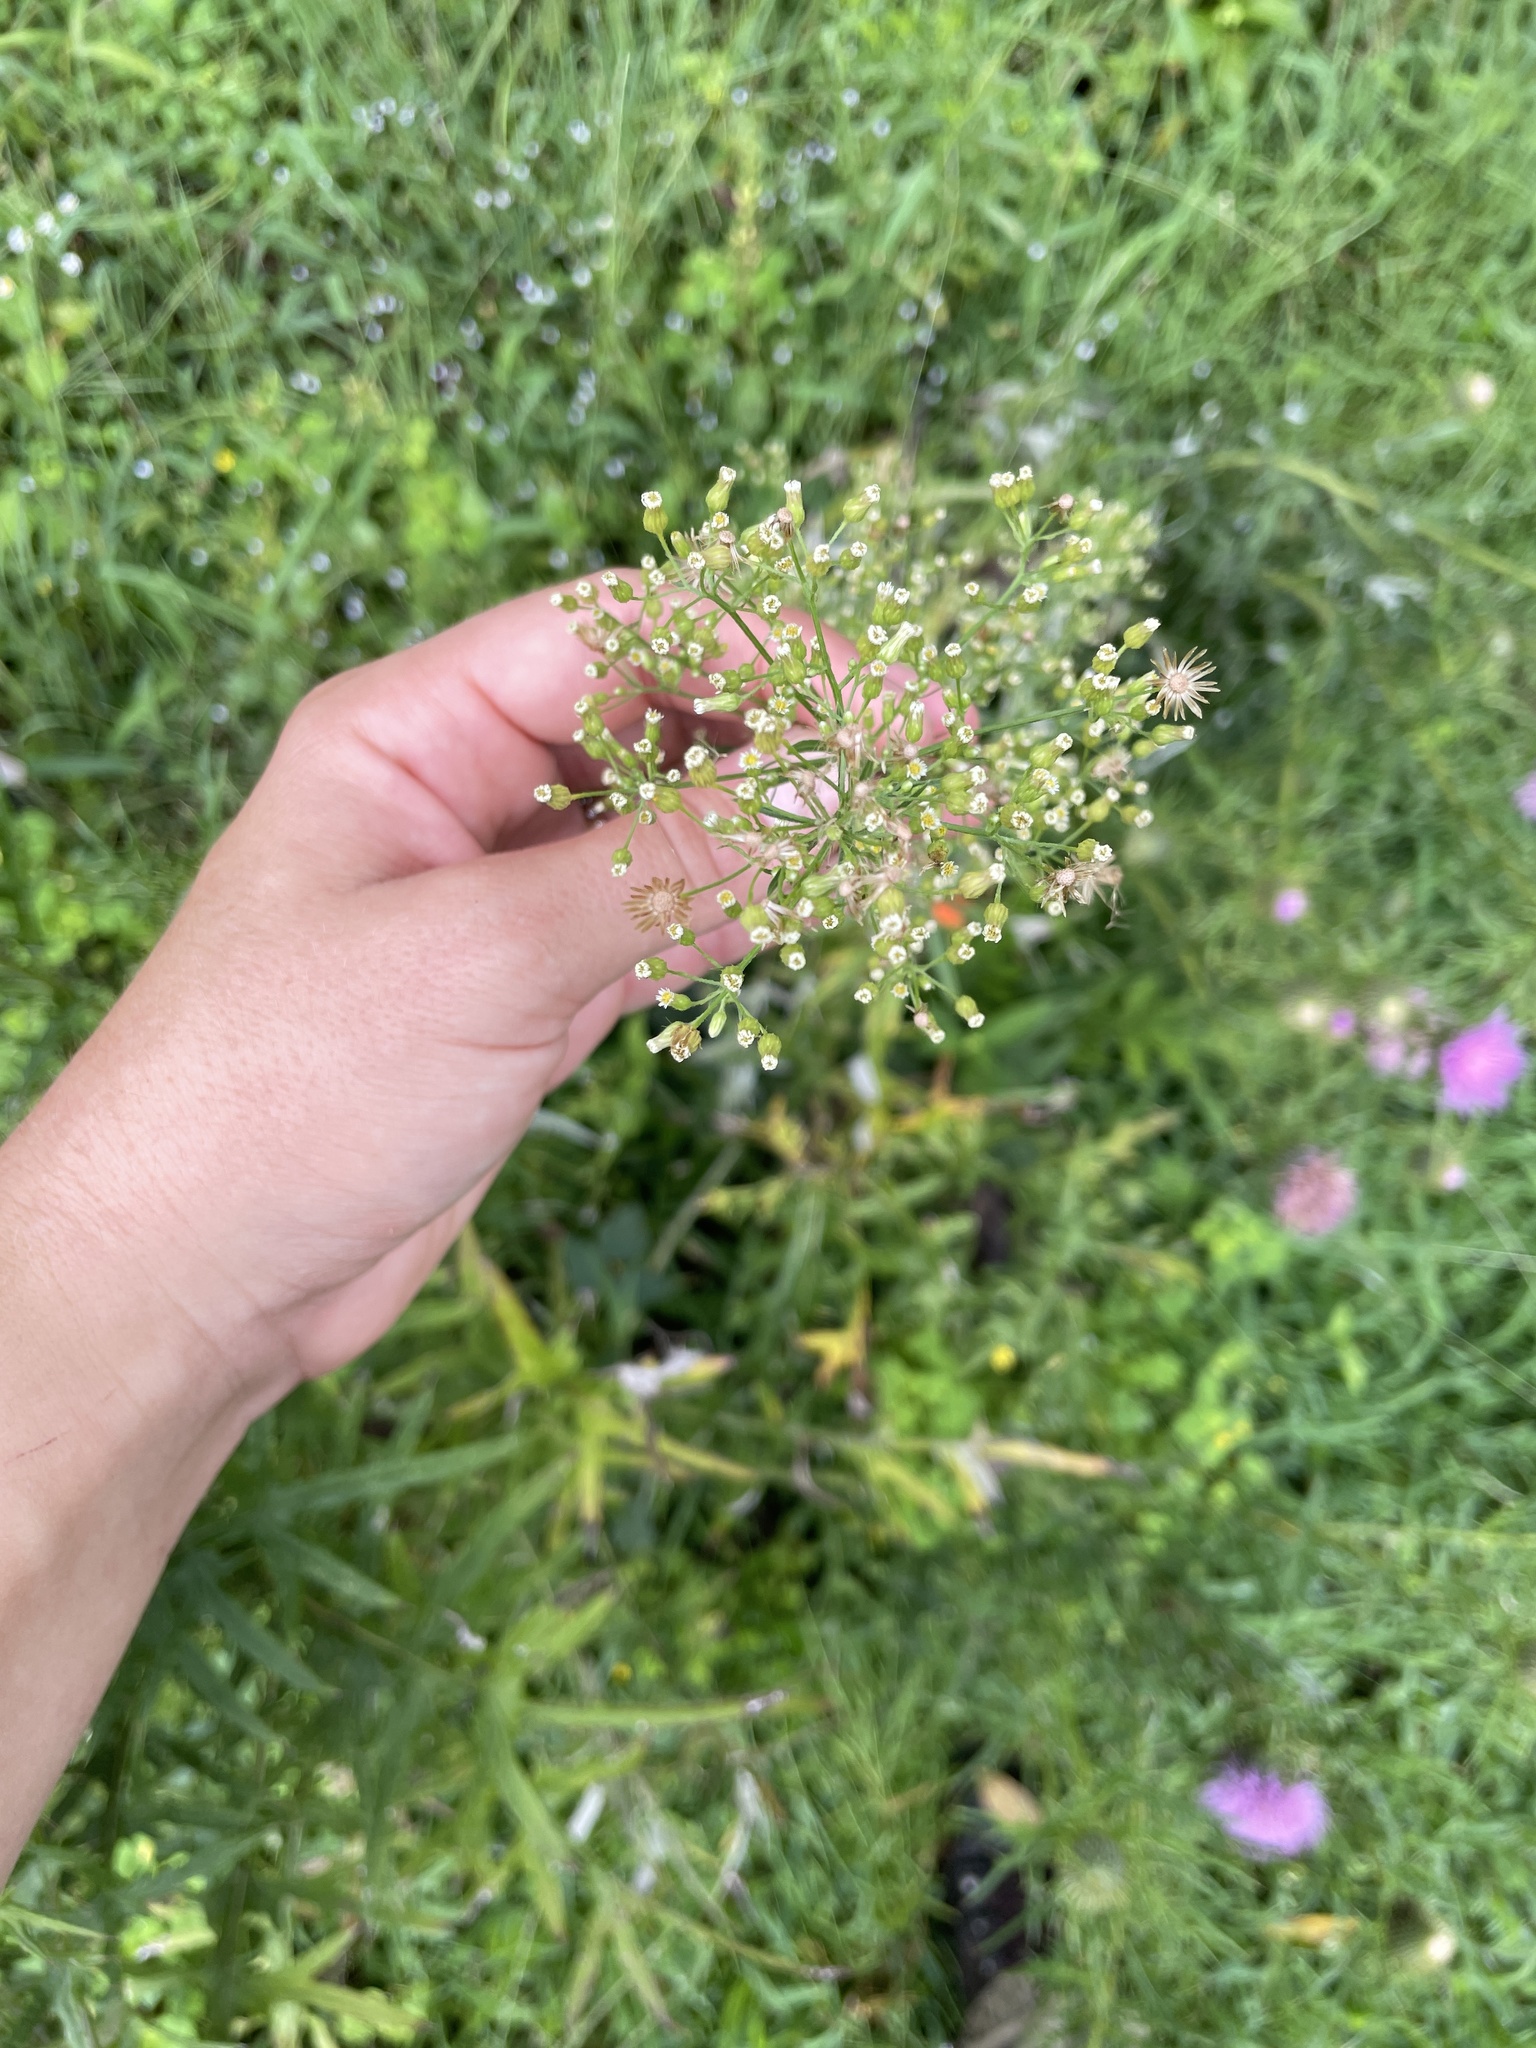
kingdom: Plantae
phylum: Tracheophyta
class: Magnoliopsida
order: Asterales
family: Asteraceae
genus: Erigeron
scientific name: Erigeron canadensis
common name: Canadian fleabane
